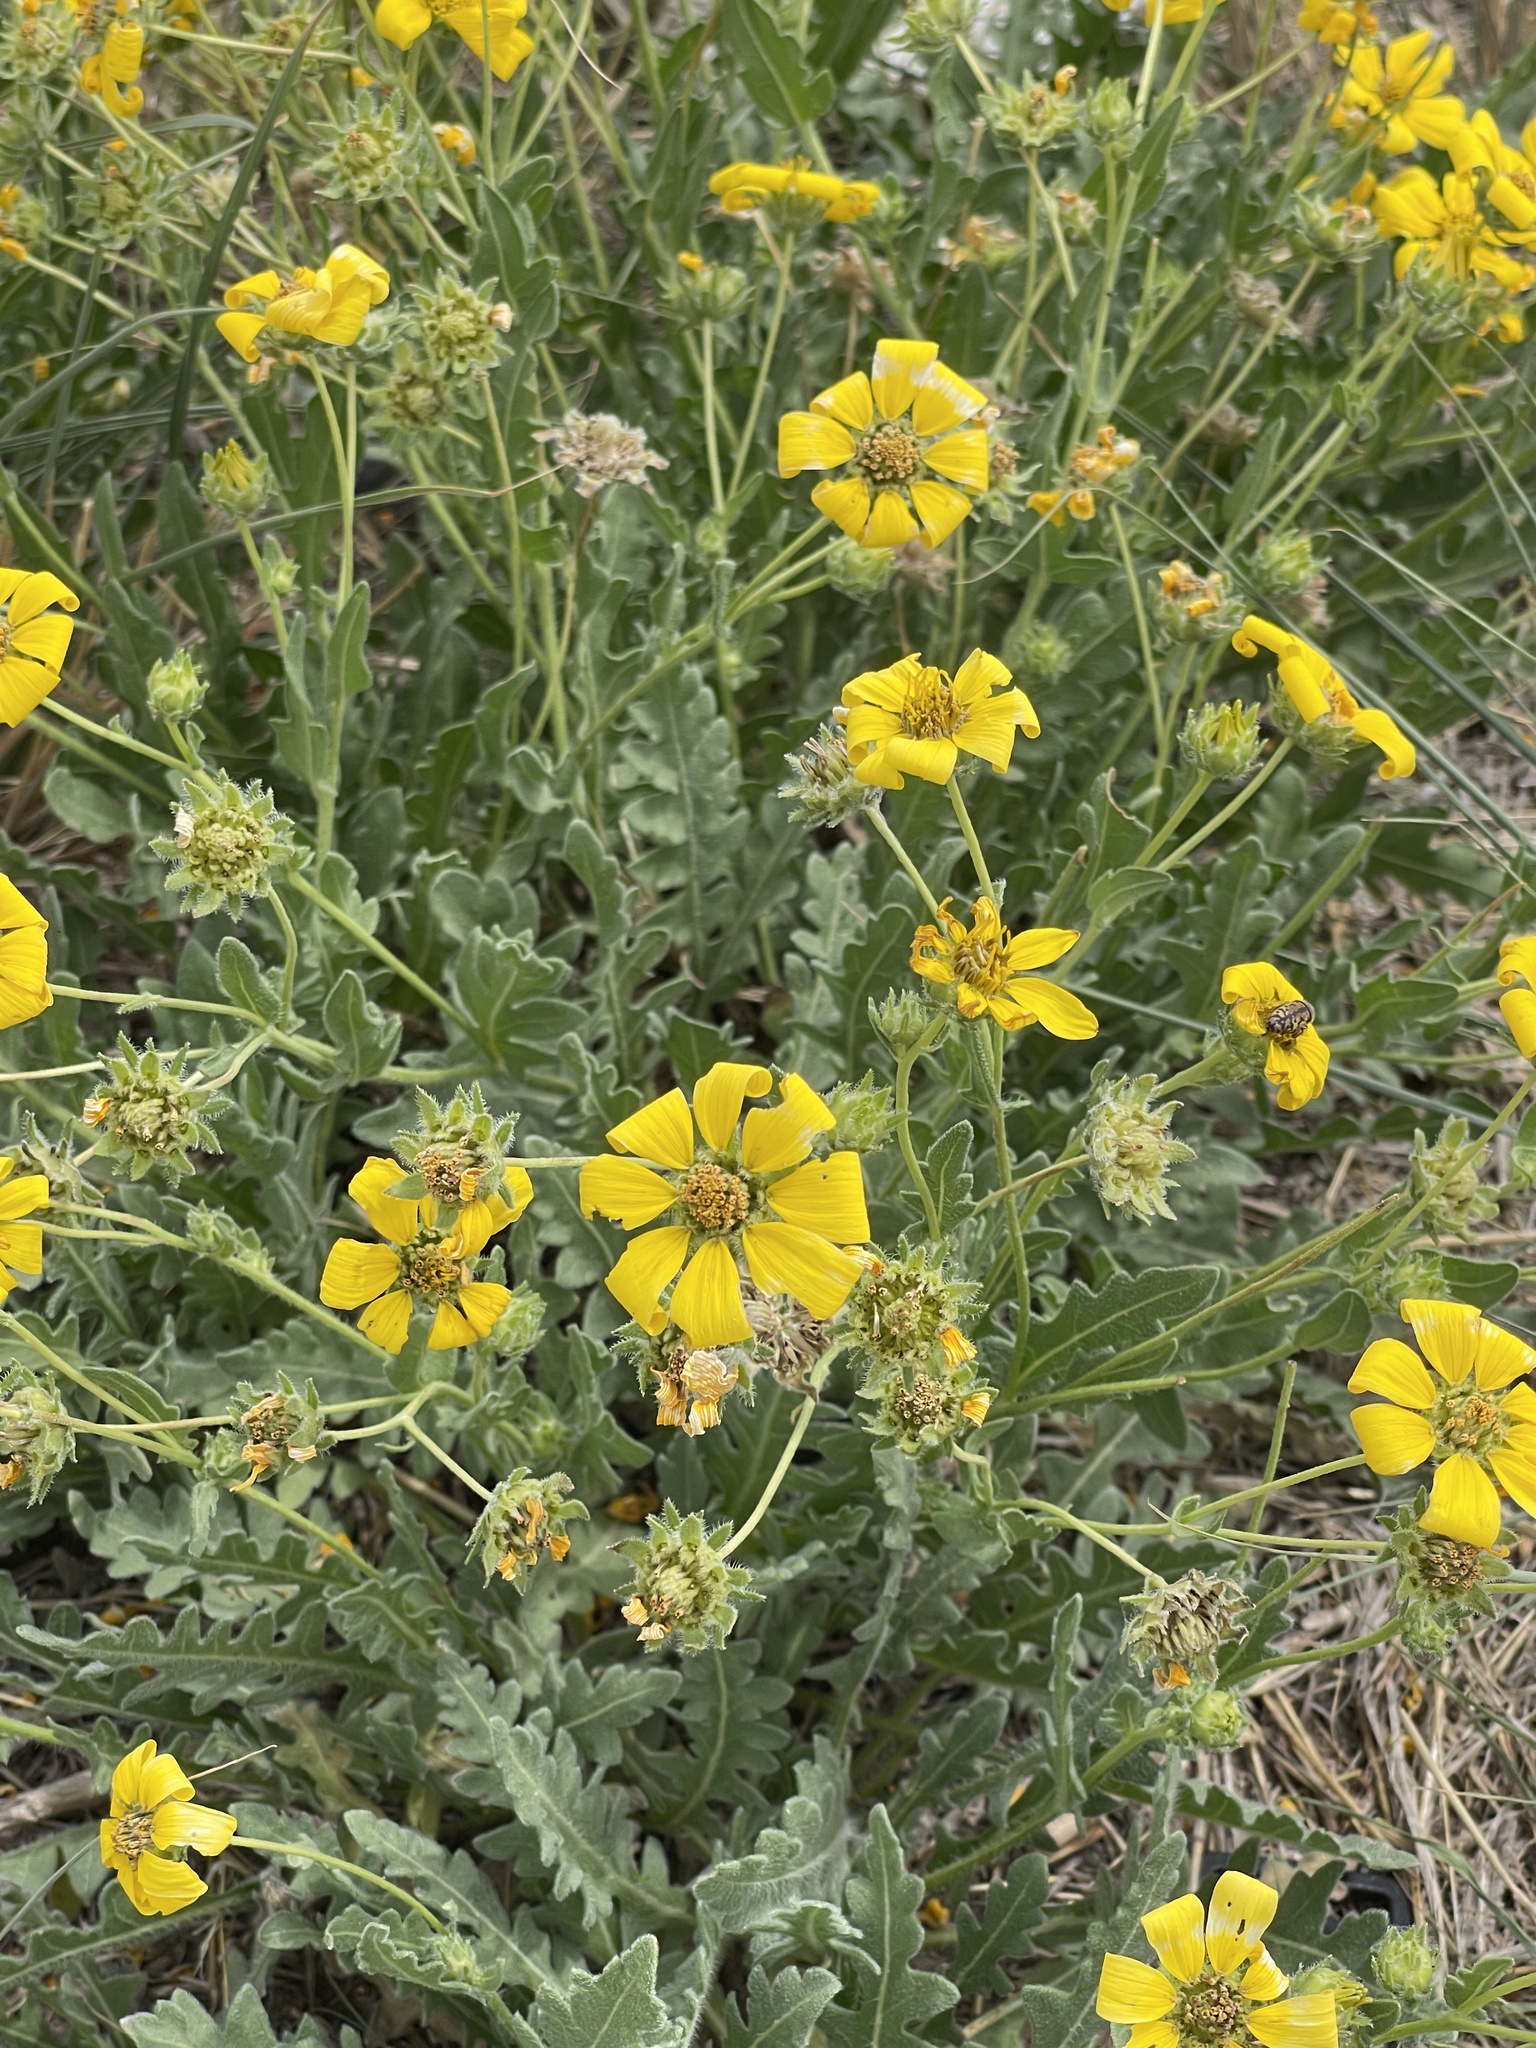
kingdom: Plantae
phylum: Tracheophyta
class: Magnoliopsida
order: Asterales
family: Asteraceae
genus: Engelmannia
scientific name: Engelmannia peristenia
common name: Engelmann's daisy
